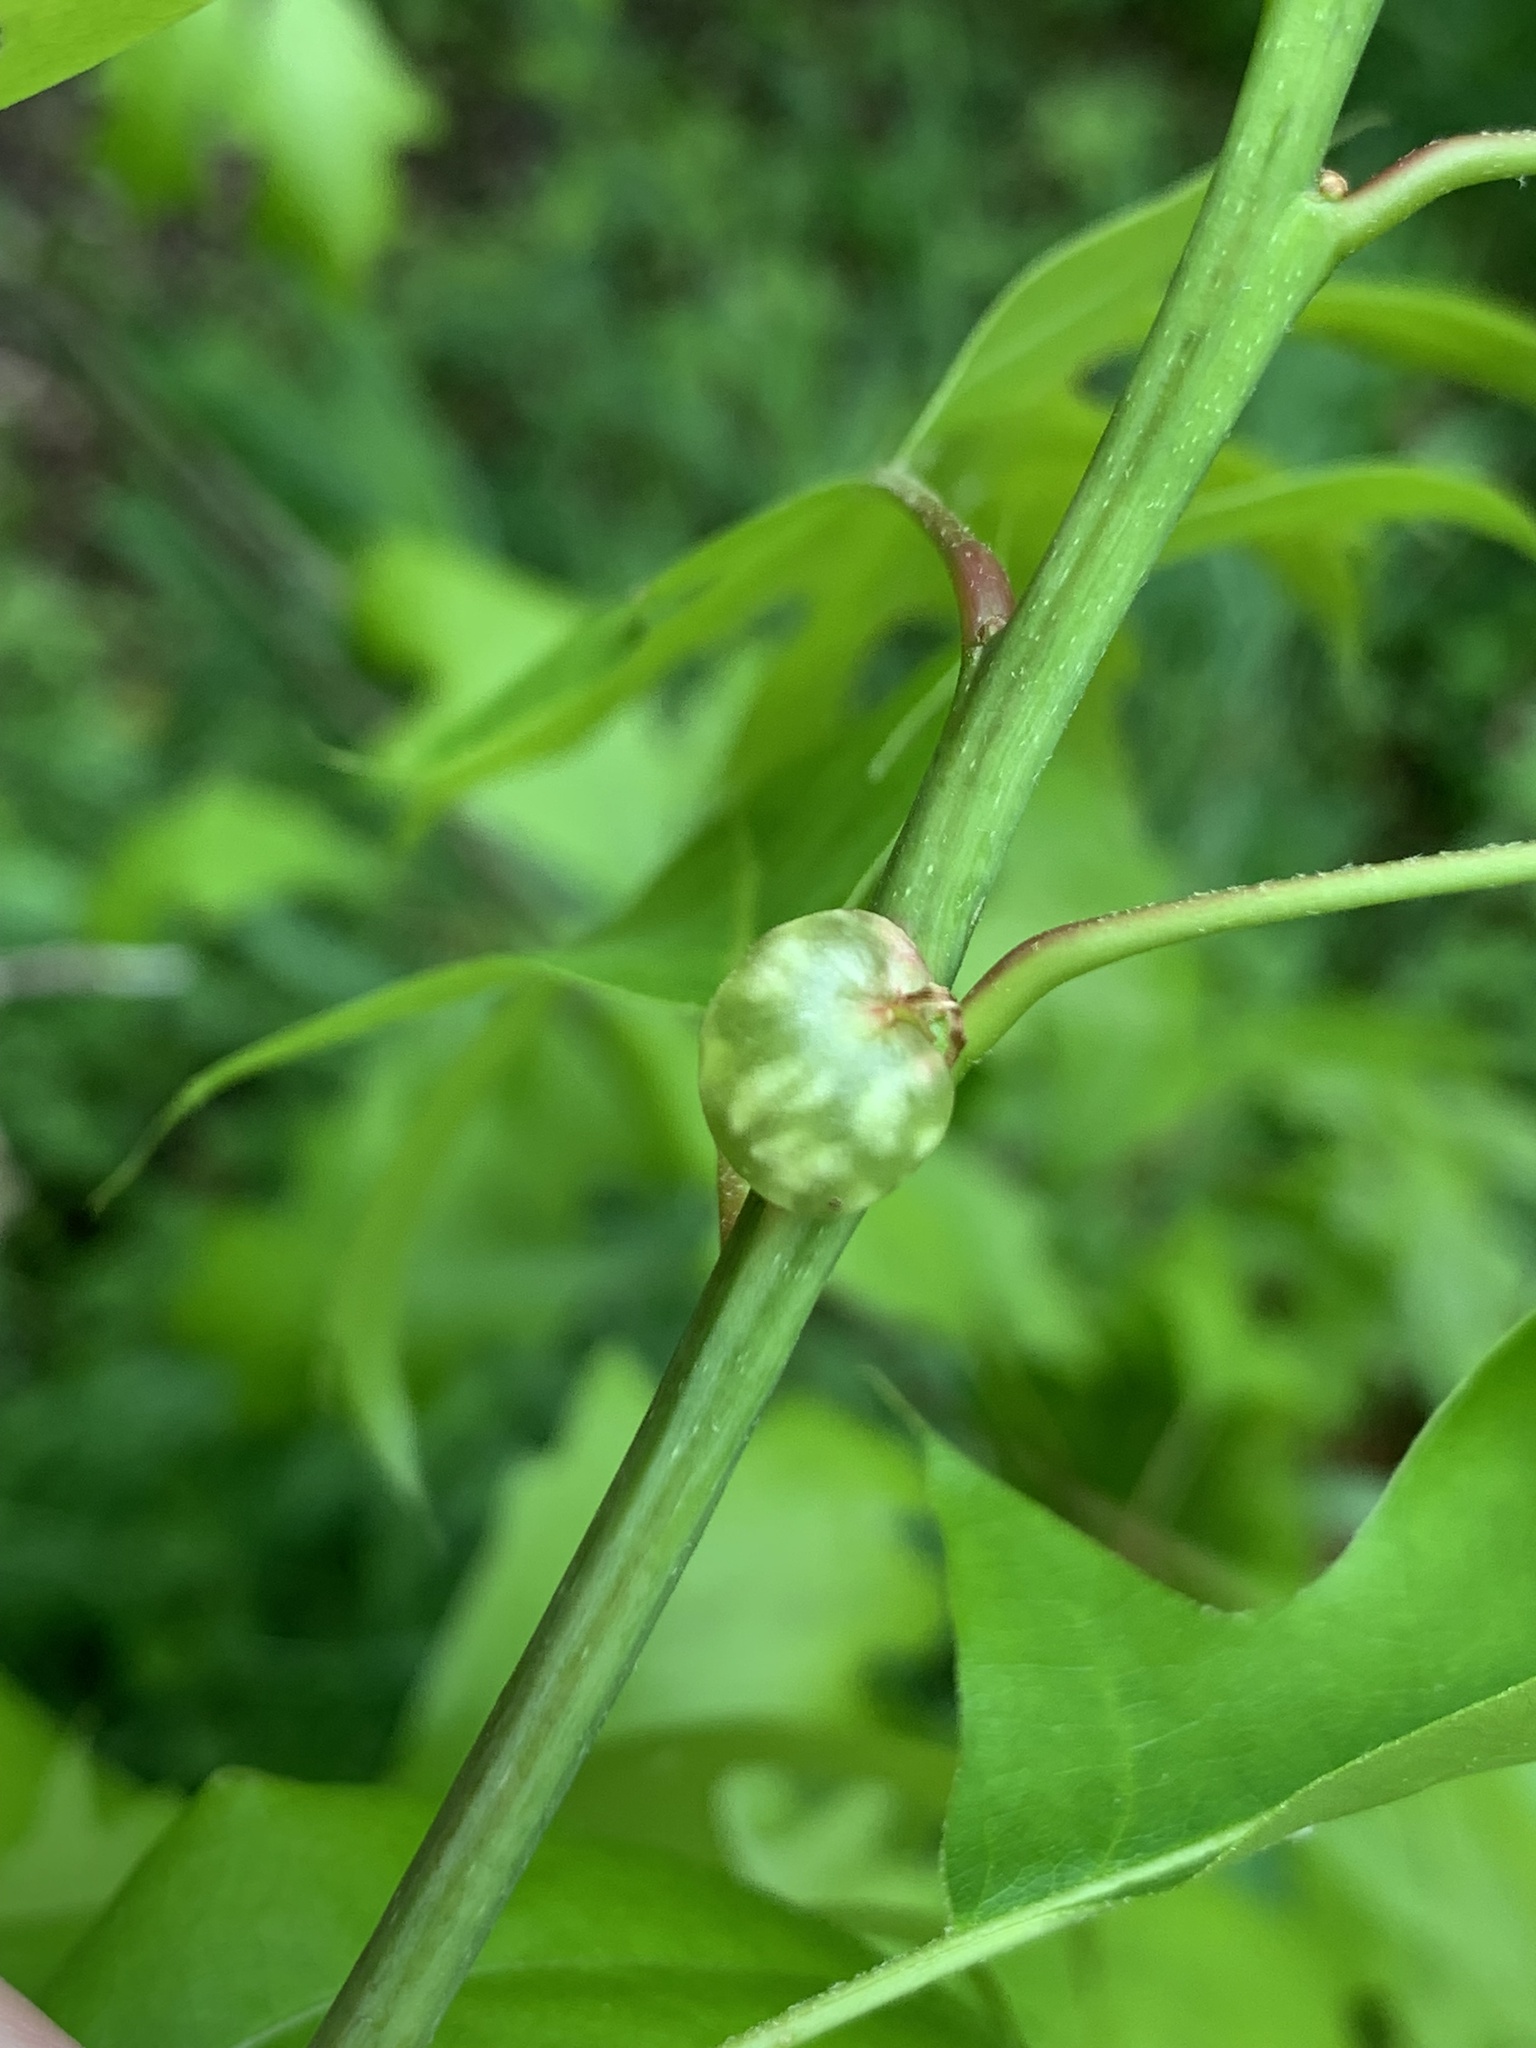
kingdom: Animalia
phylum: Arthropoda
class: Insecta
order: Hymenoptera
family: Cynipidae
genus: Dryocosmus
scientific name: Dryocosmus quercuspalustris
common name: Succulent oak gall wasp
